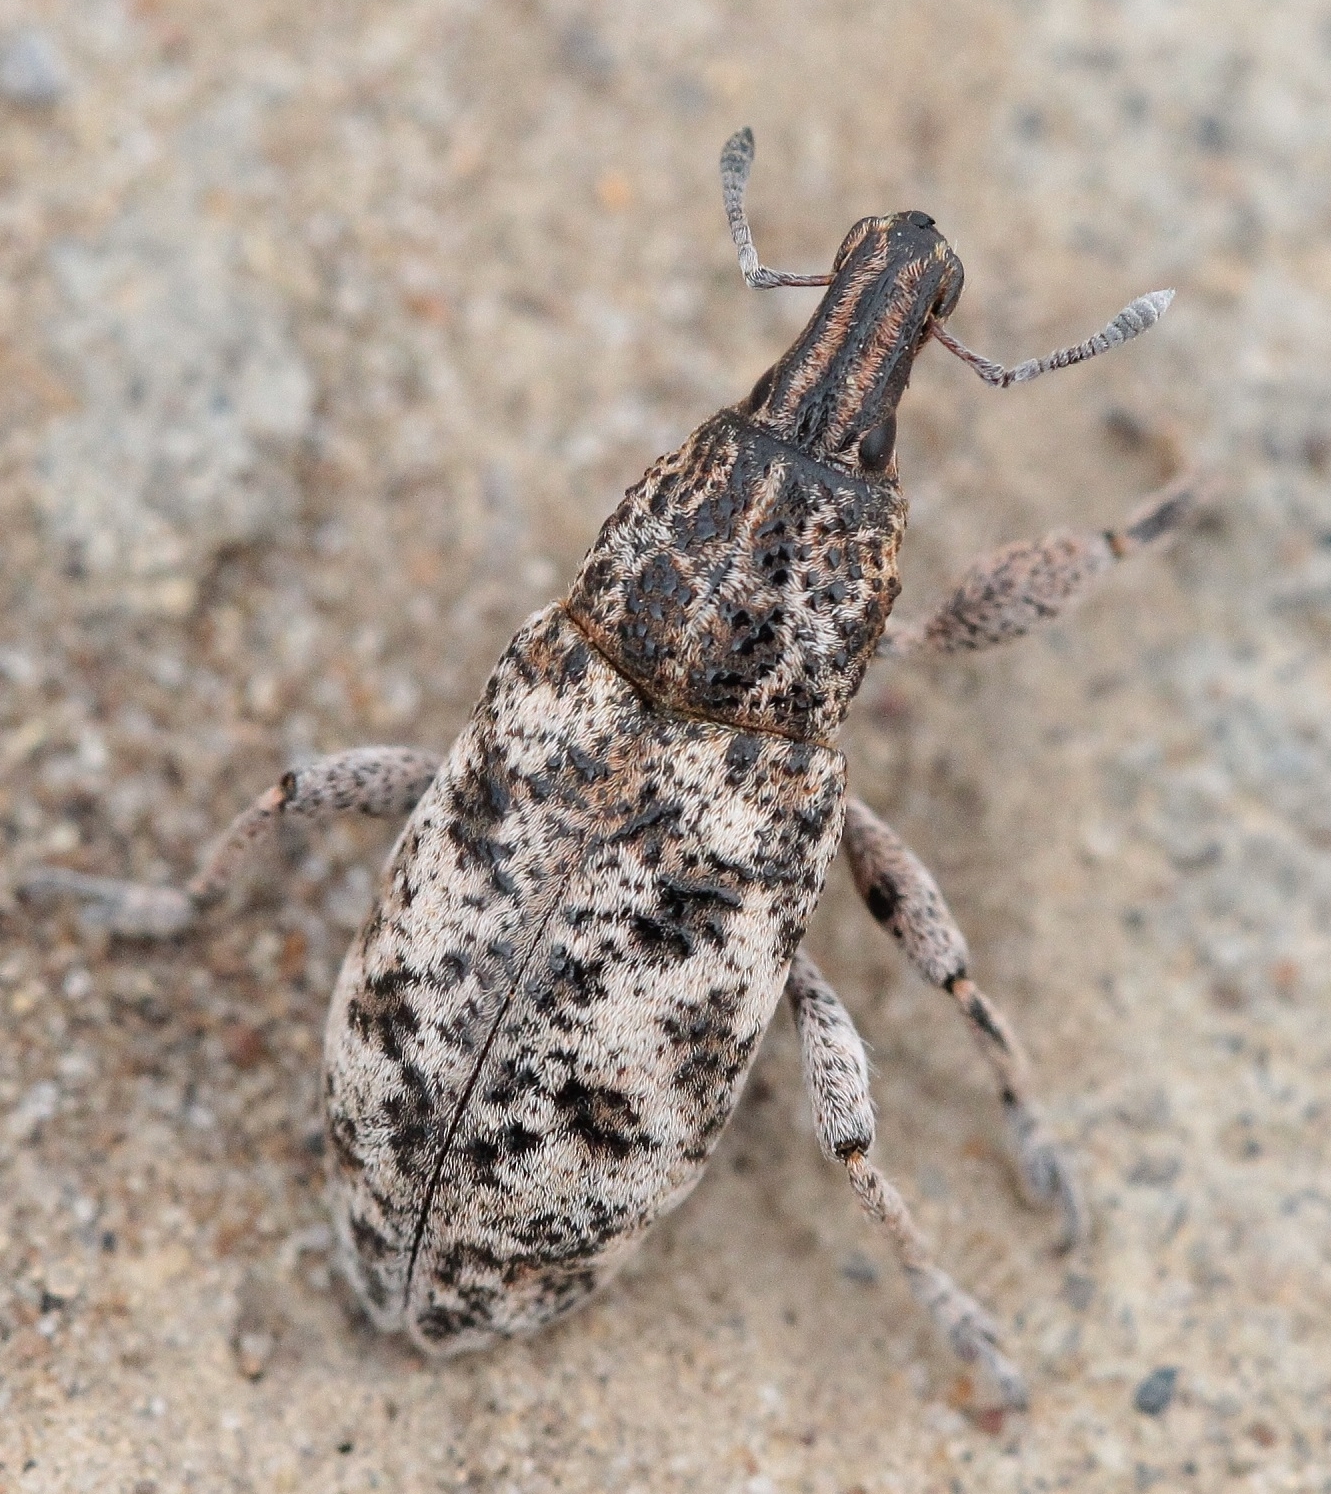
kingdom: Animalia
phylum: Arthropoda
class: Insecta
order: Coleoptera
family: Curculionidae
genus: Cyphocleonus
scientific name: Cyphocleonus dealbatus
